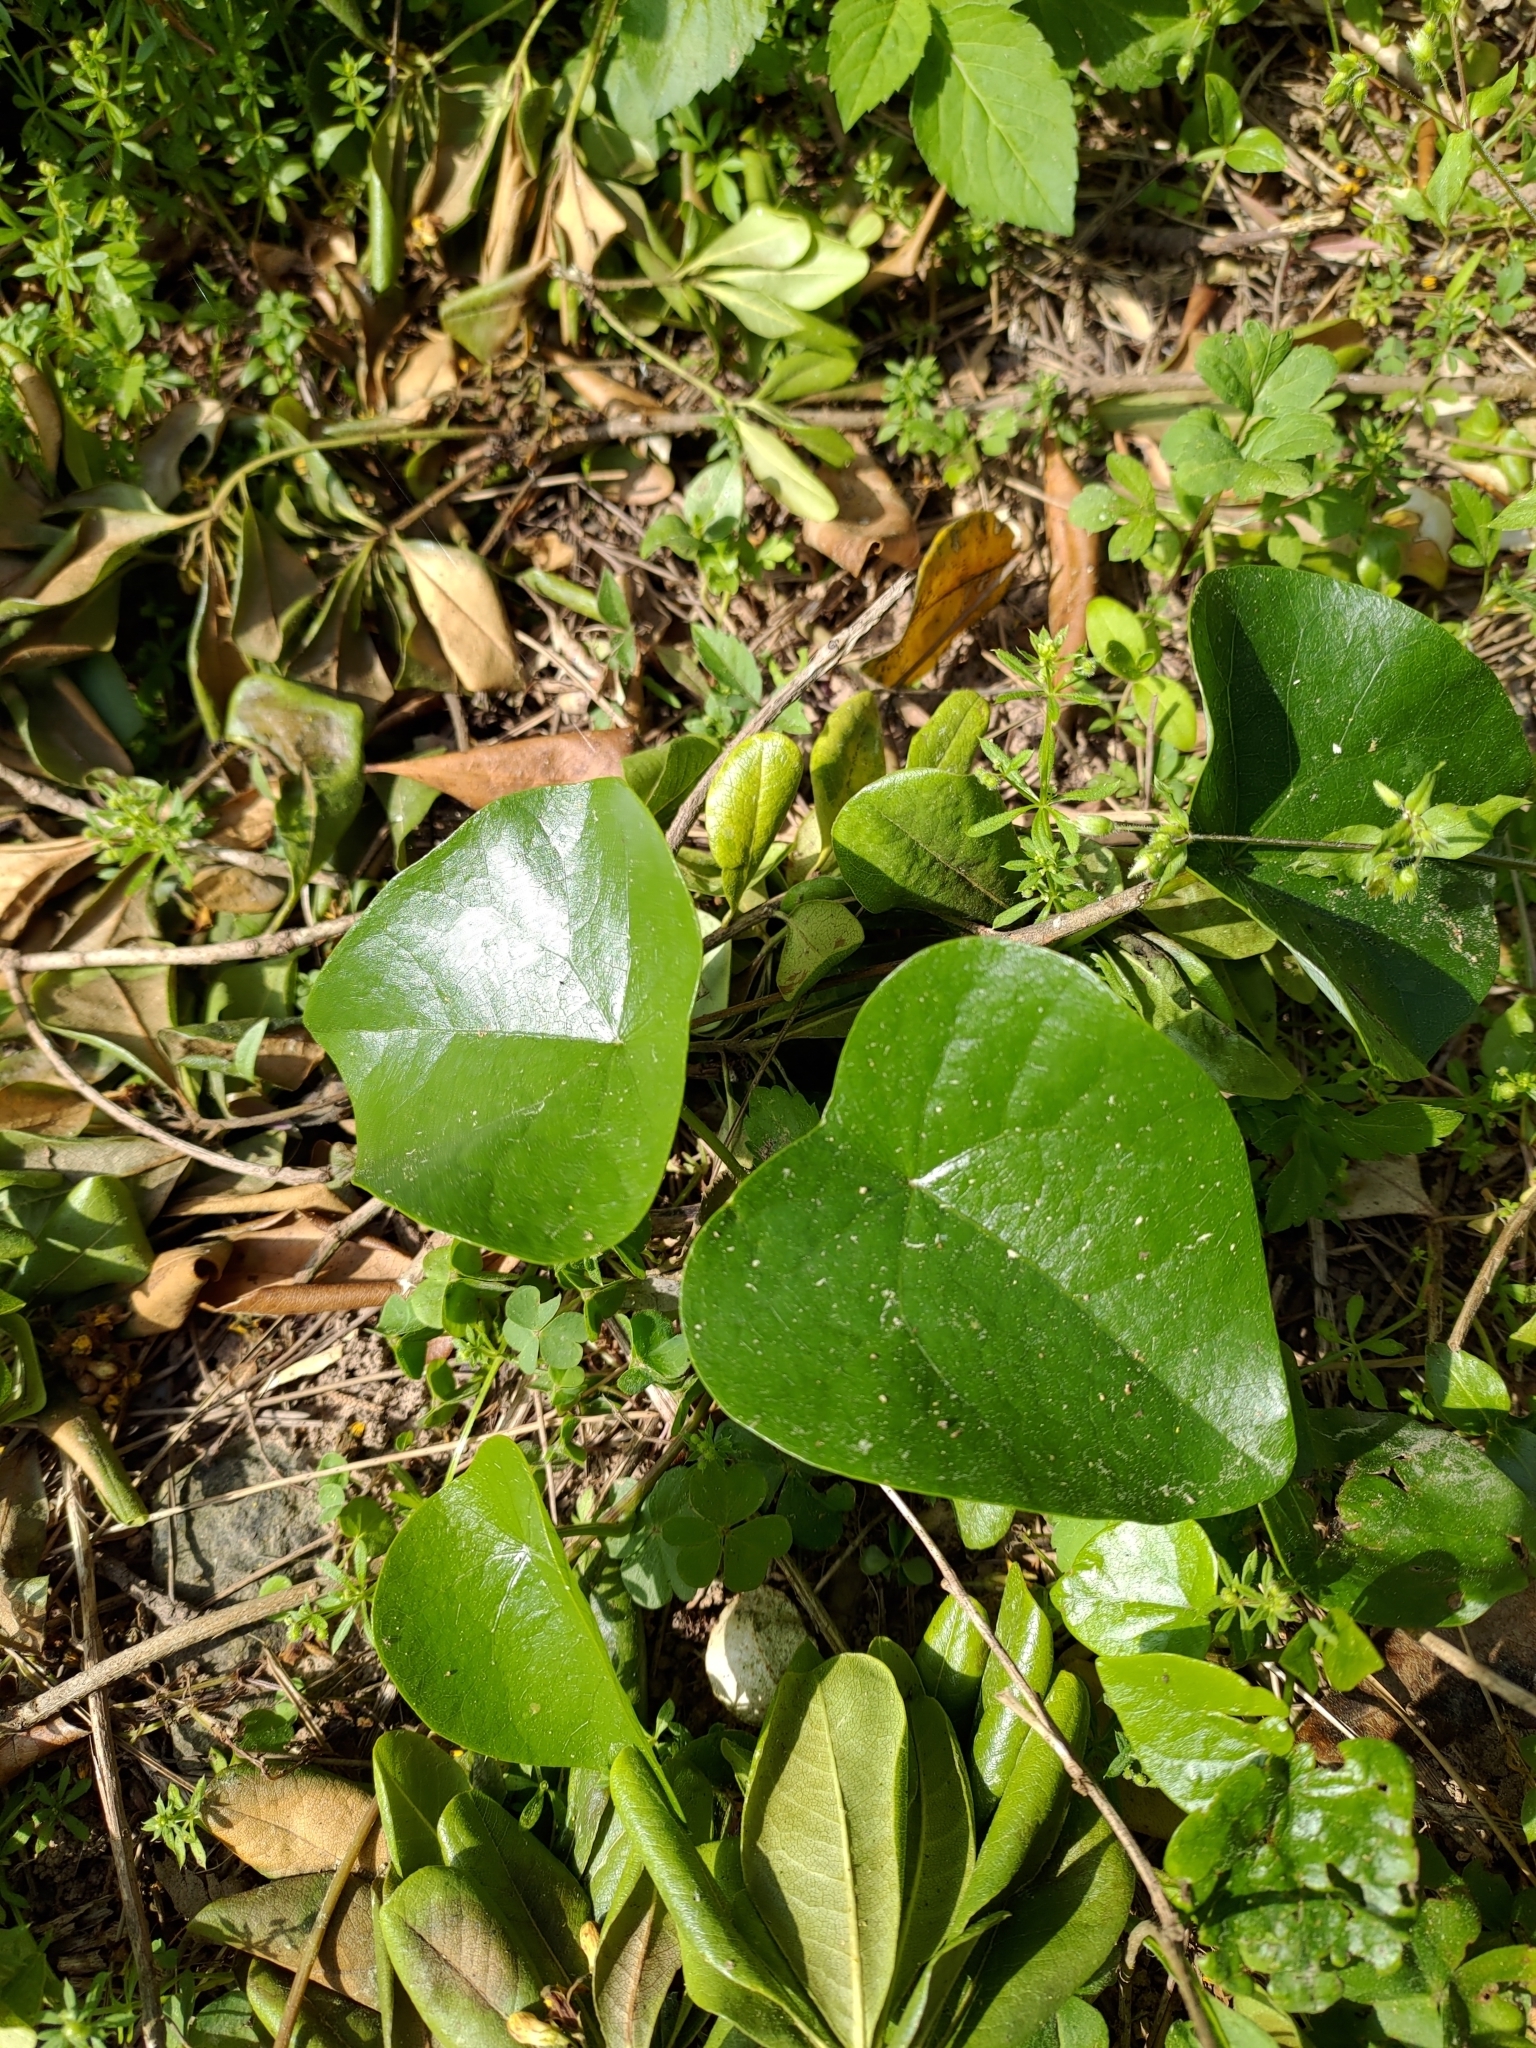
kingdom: Plantae
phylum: Tracheophyta
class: Magnoliopsida
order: Ranunculales
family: Menispermaceae
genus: Stephania
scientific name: Stephania japonica
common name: Snake vine
